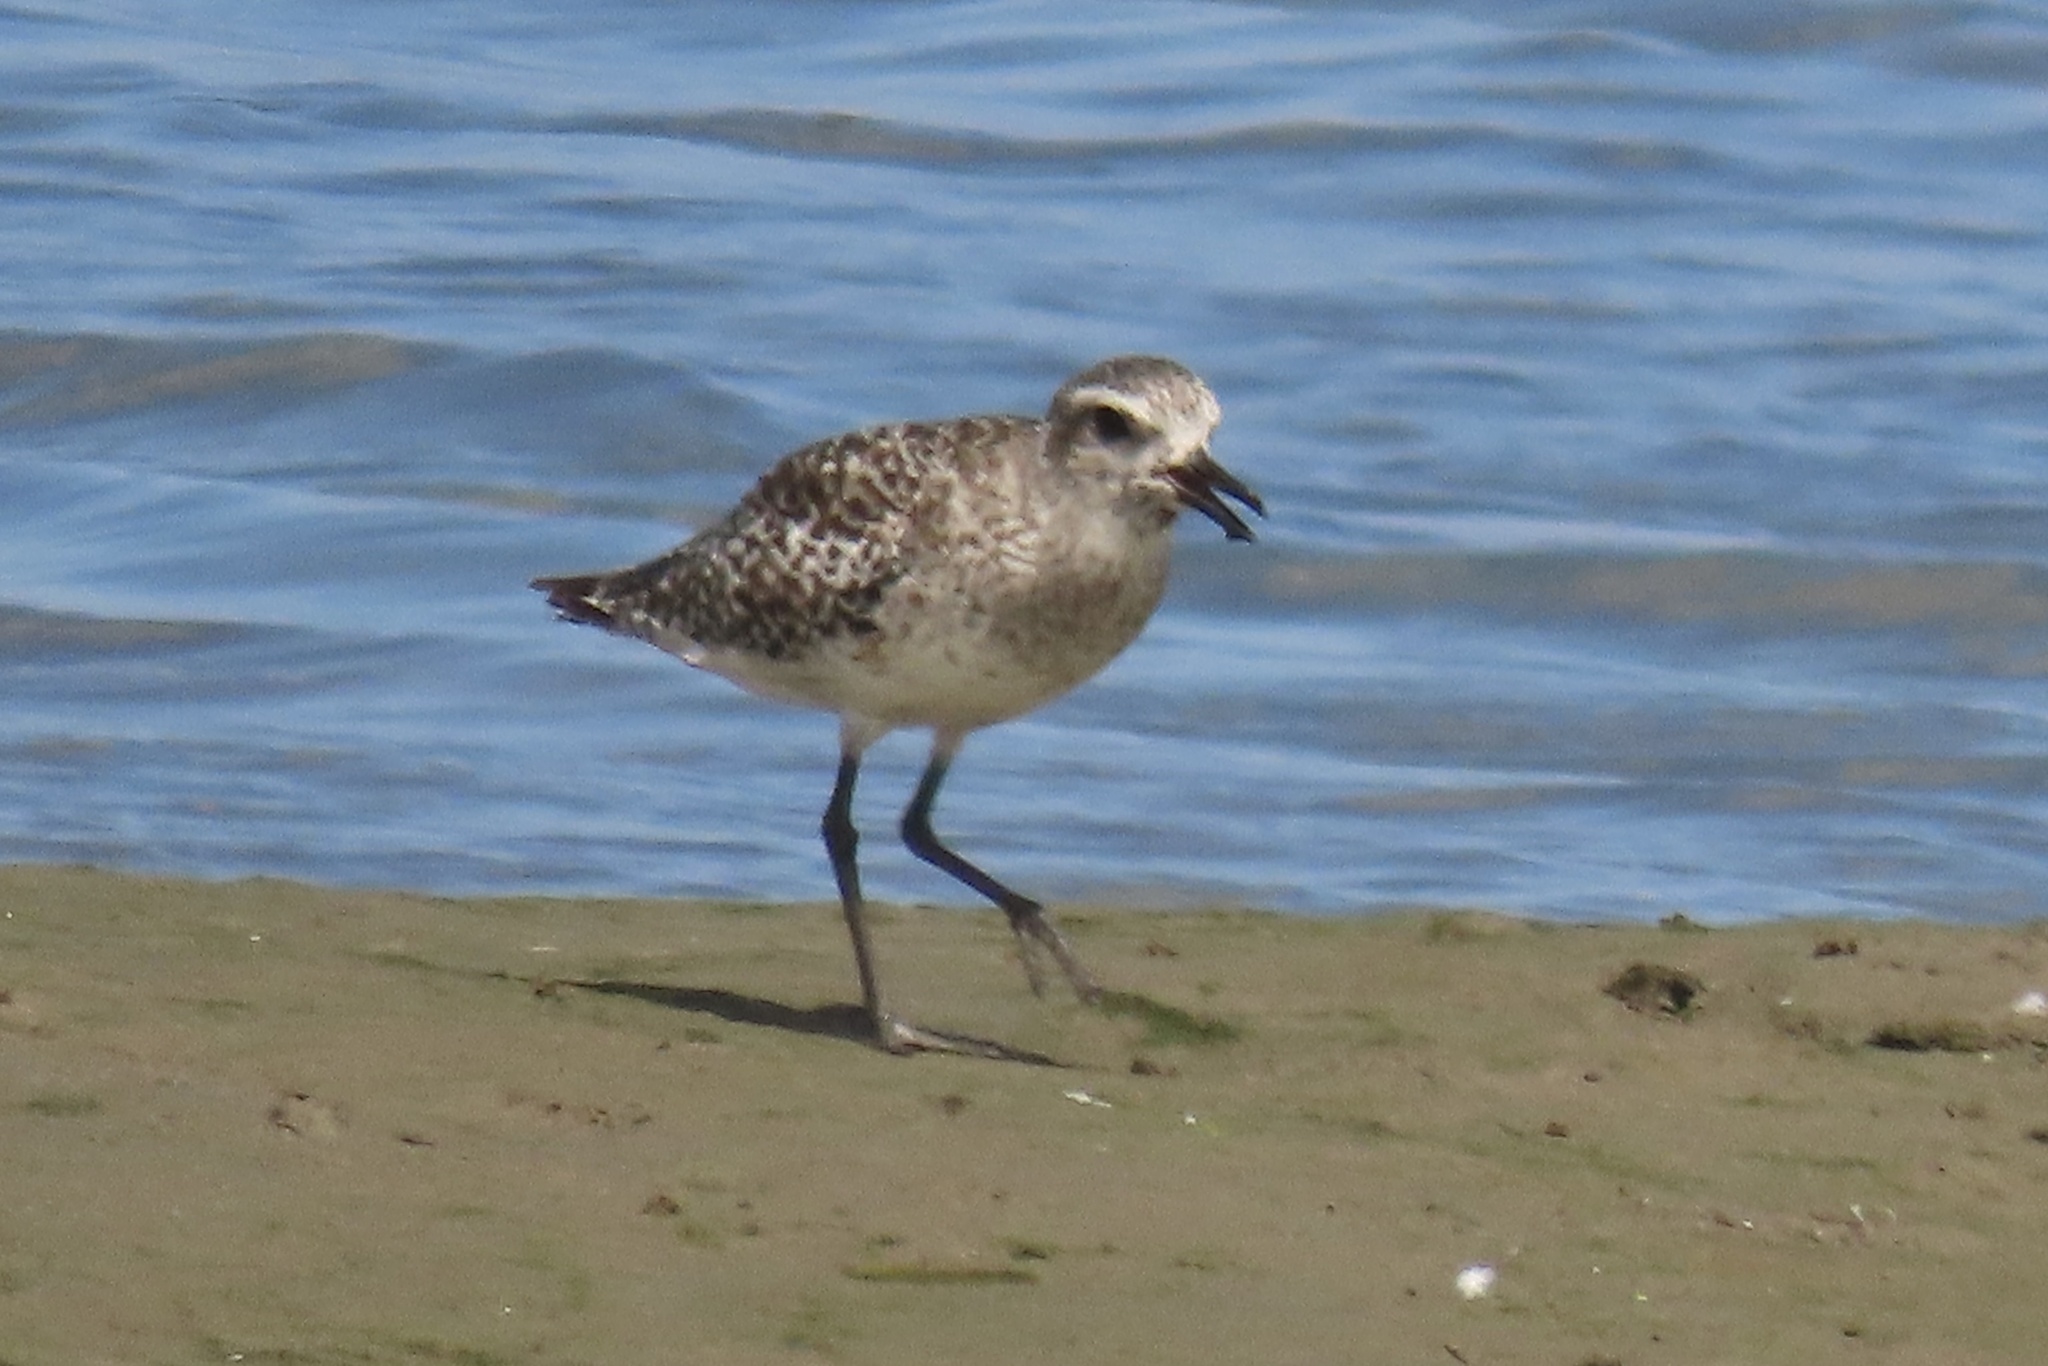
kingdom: Animalia
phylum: Chordata
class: Aves
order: Charadriiformes
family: Charadriidae
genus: Pluvialis
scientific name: Pluvialis squatarola
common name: Grey plover
